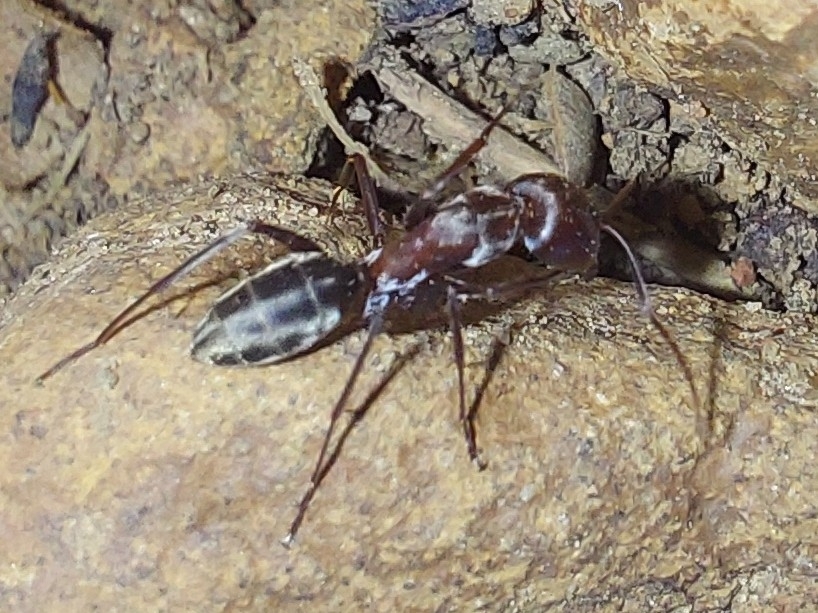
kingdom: Animalia
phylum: Arthropoda
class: Insecta
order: Hymenoptera
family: Formicidae
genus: Camponotus
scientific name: Camponotus vestitus
